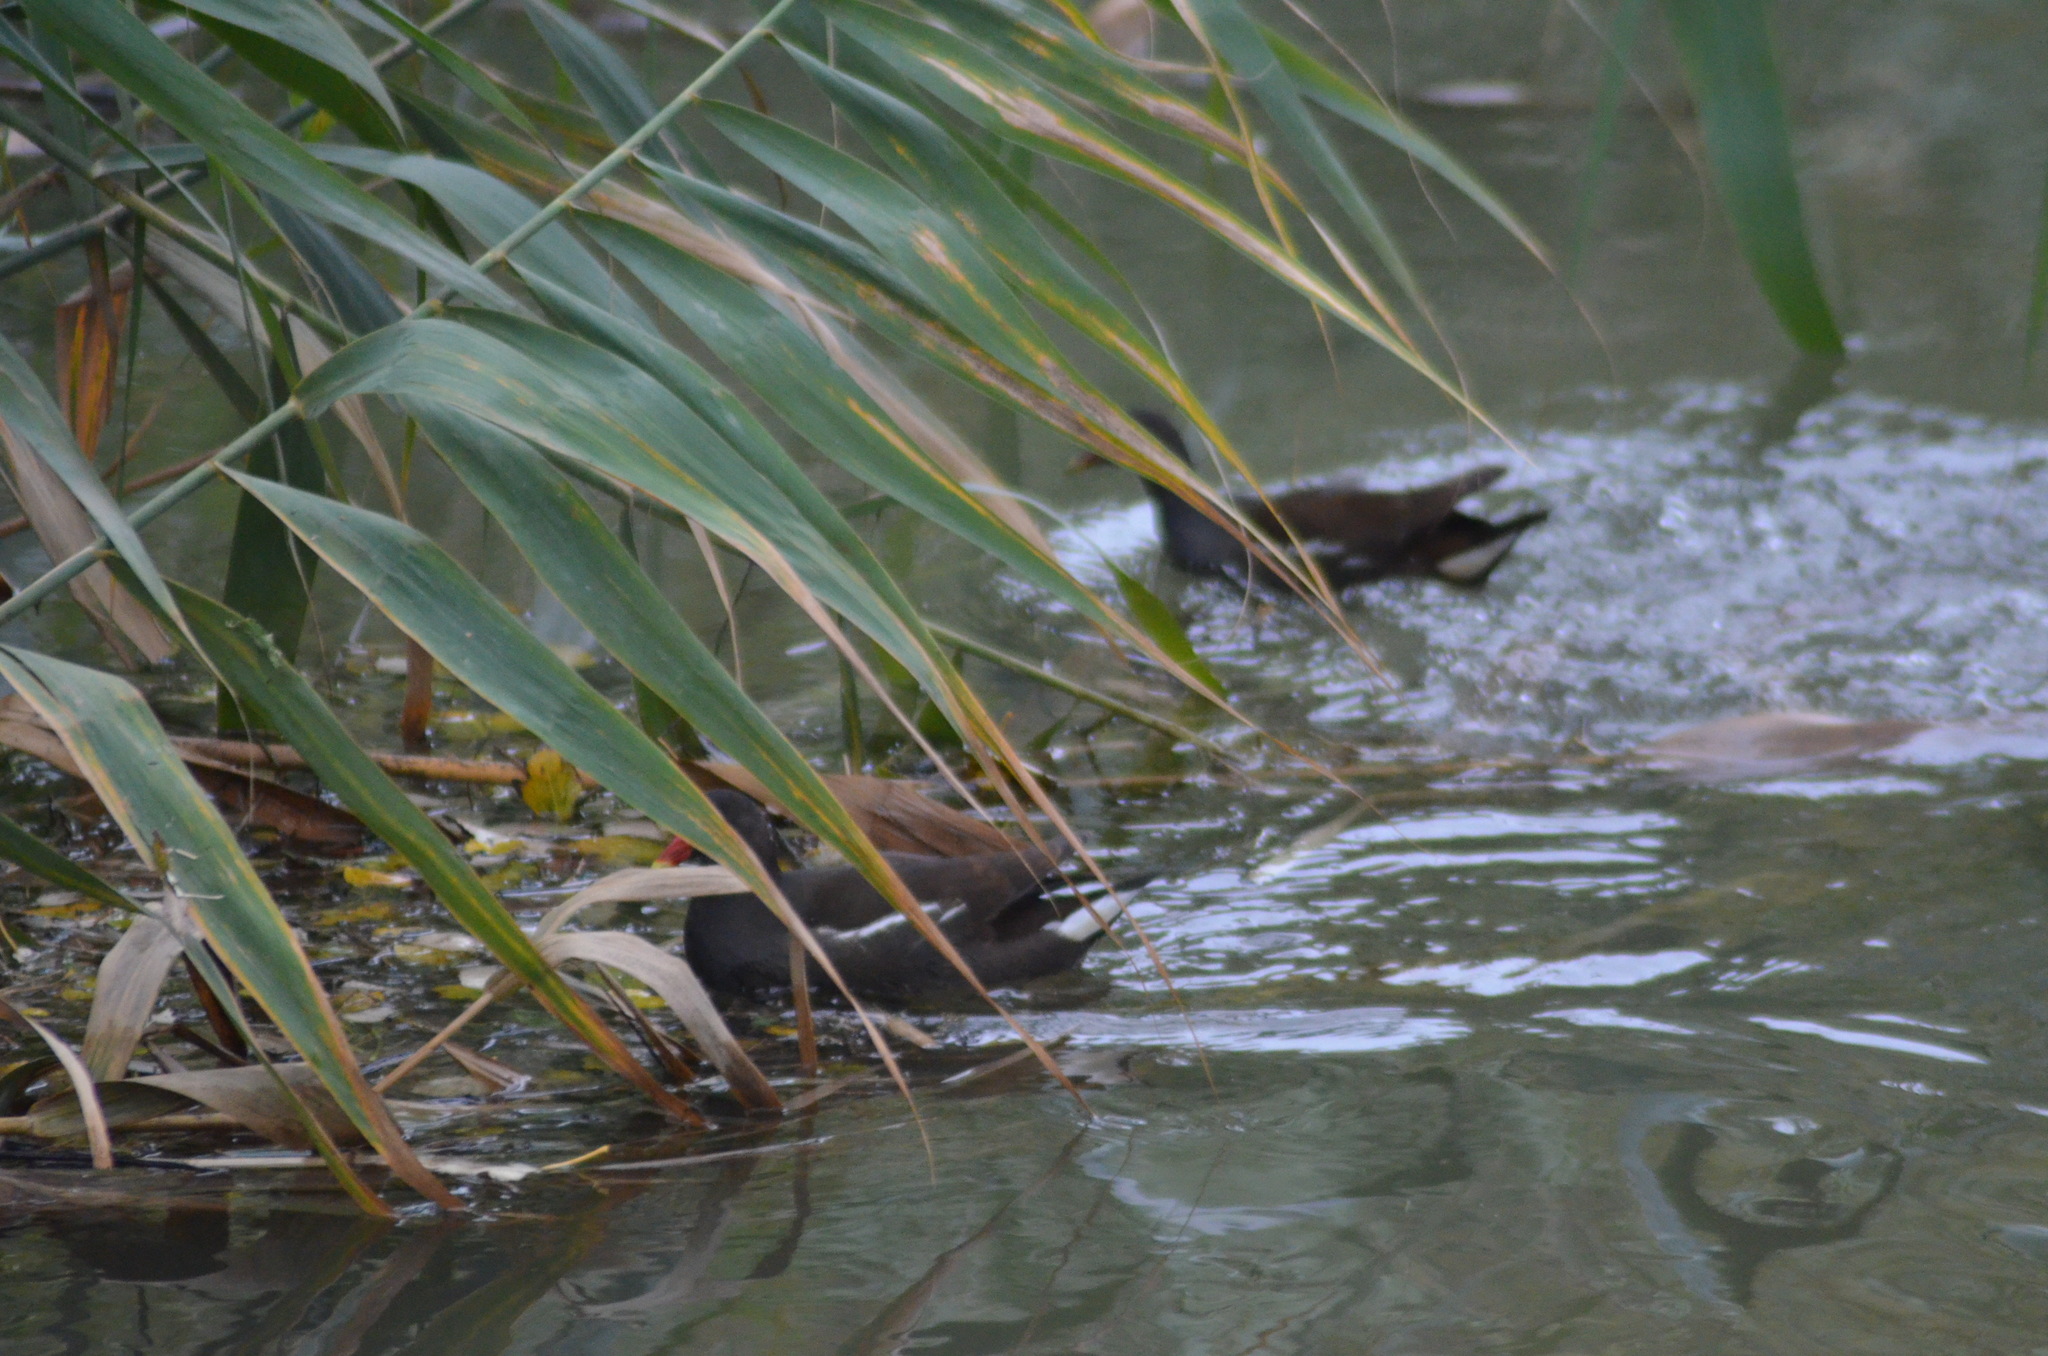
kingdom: Animalia
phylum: Chordata
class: Aves
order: Gruiformes
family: Rallidae
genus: Gallinula
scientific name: Gallinula chloropus
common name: Common moorhen
